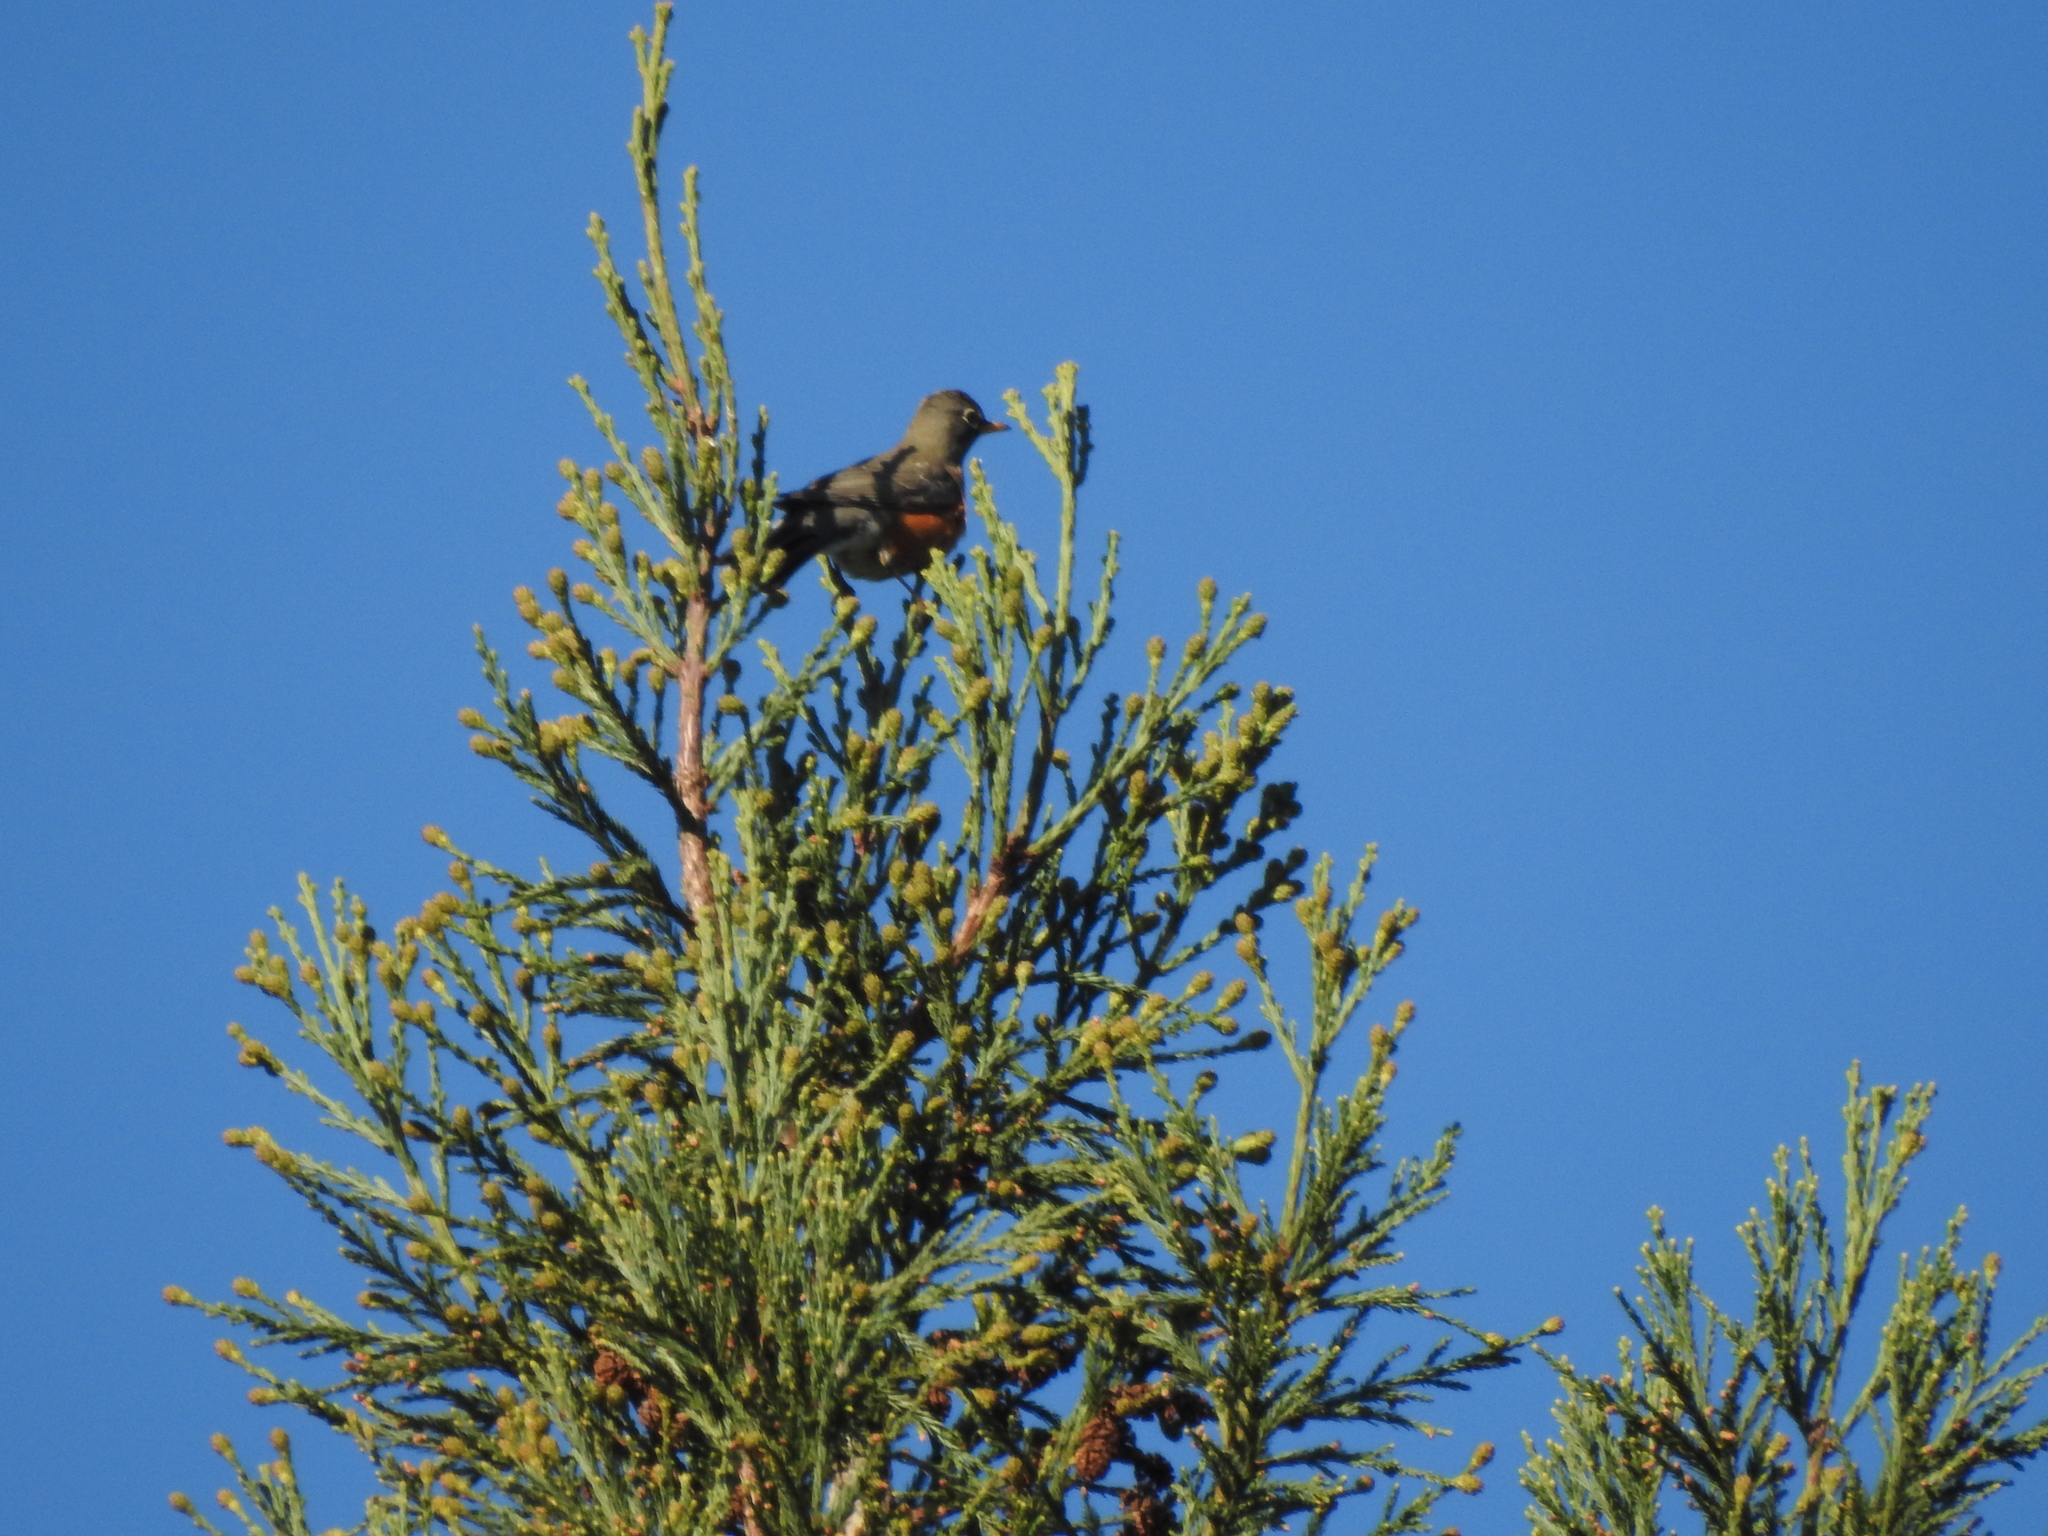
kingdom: Animalia
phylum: Chordata
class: Aves
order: Passeriformes
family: Turdidae
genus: Turdus
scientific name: Turdus migratorius
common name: American robin
